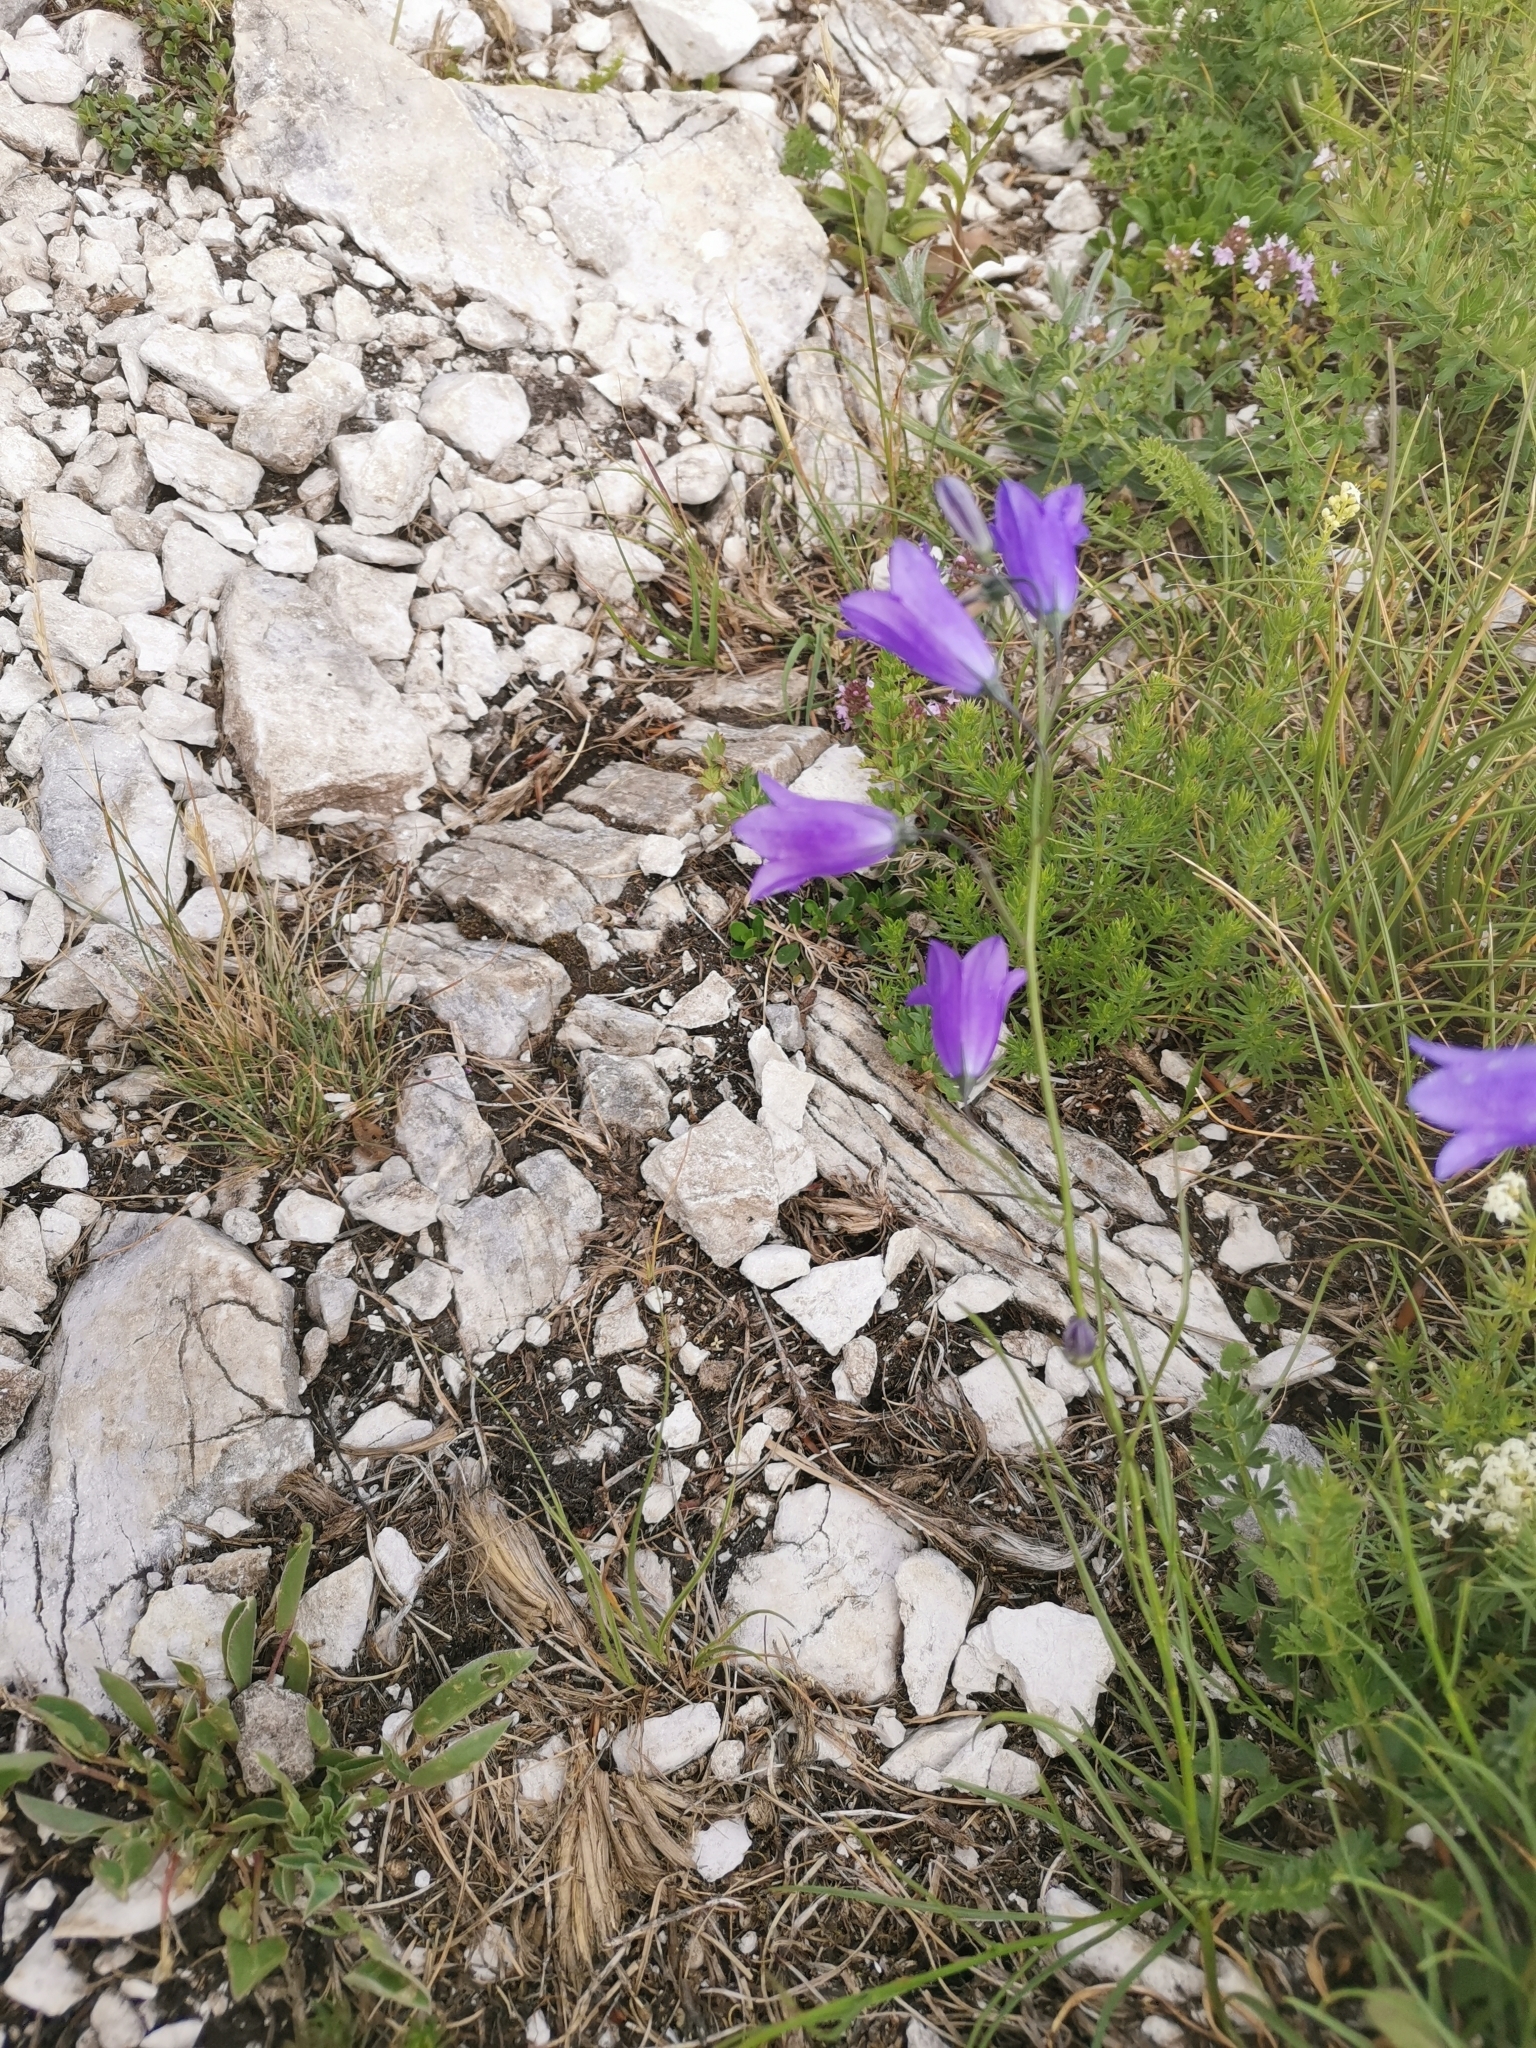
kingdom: Plantae
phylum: Tracheophyta
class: Magnoliopsida
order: Asterales
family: Campanulaceae
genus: Campanula
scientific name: Campanula marchesettii
